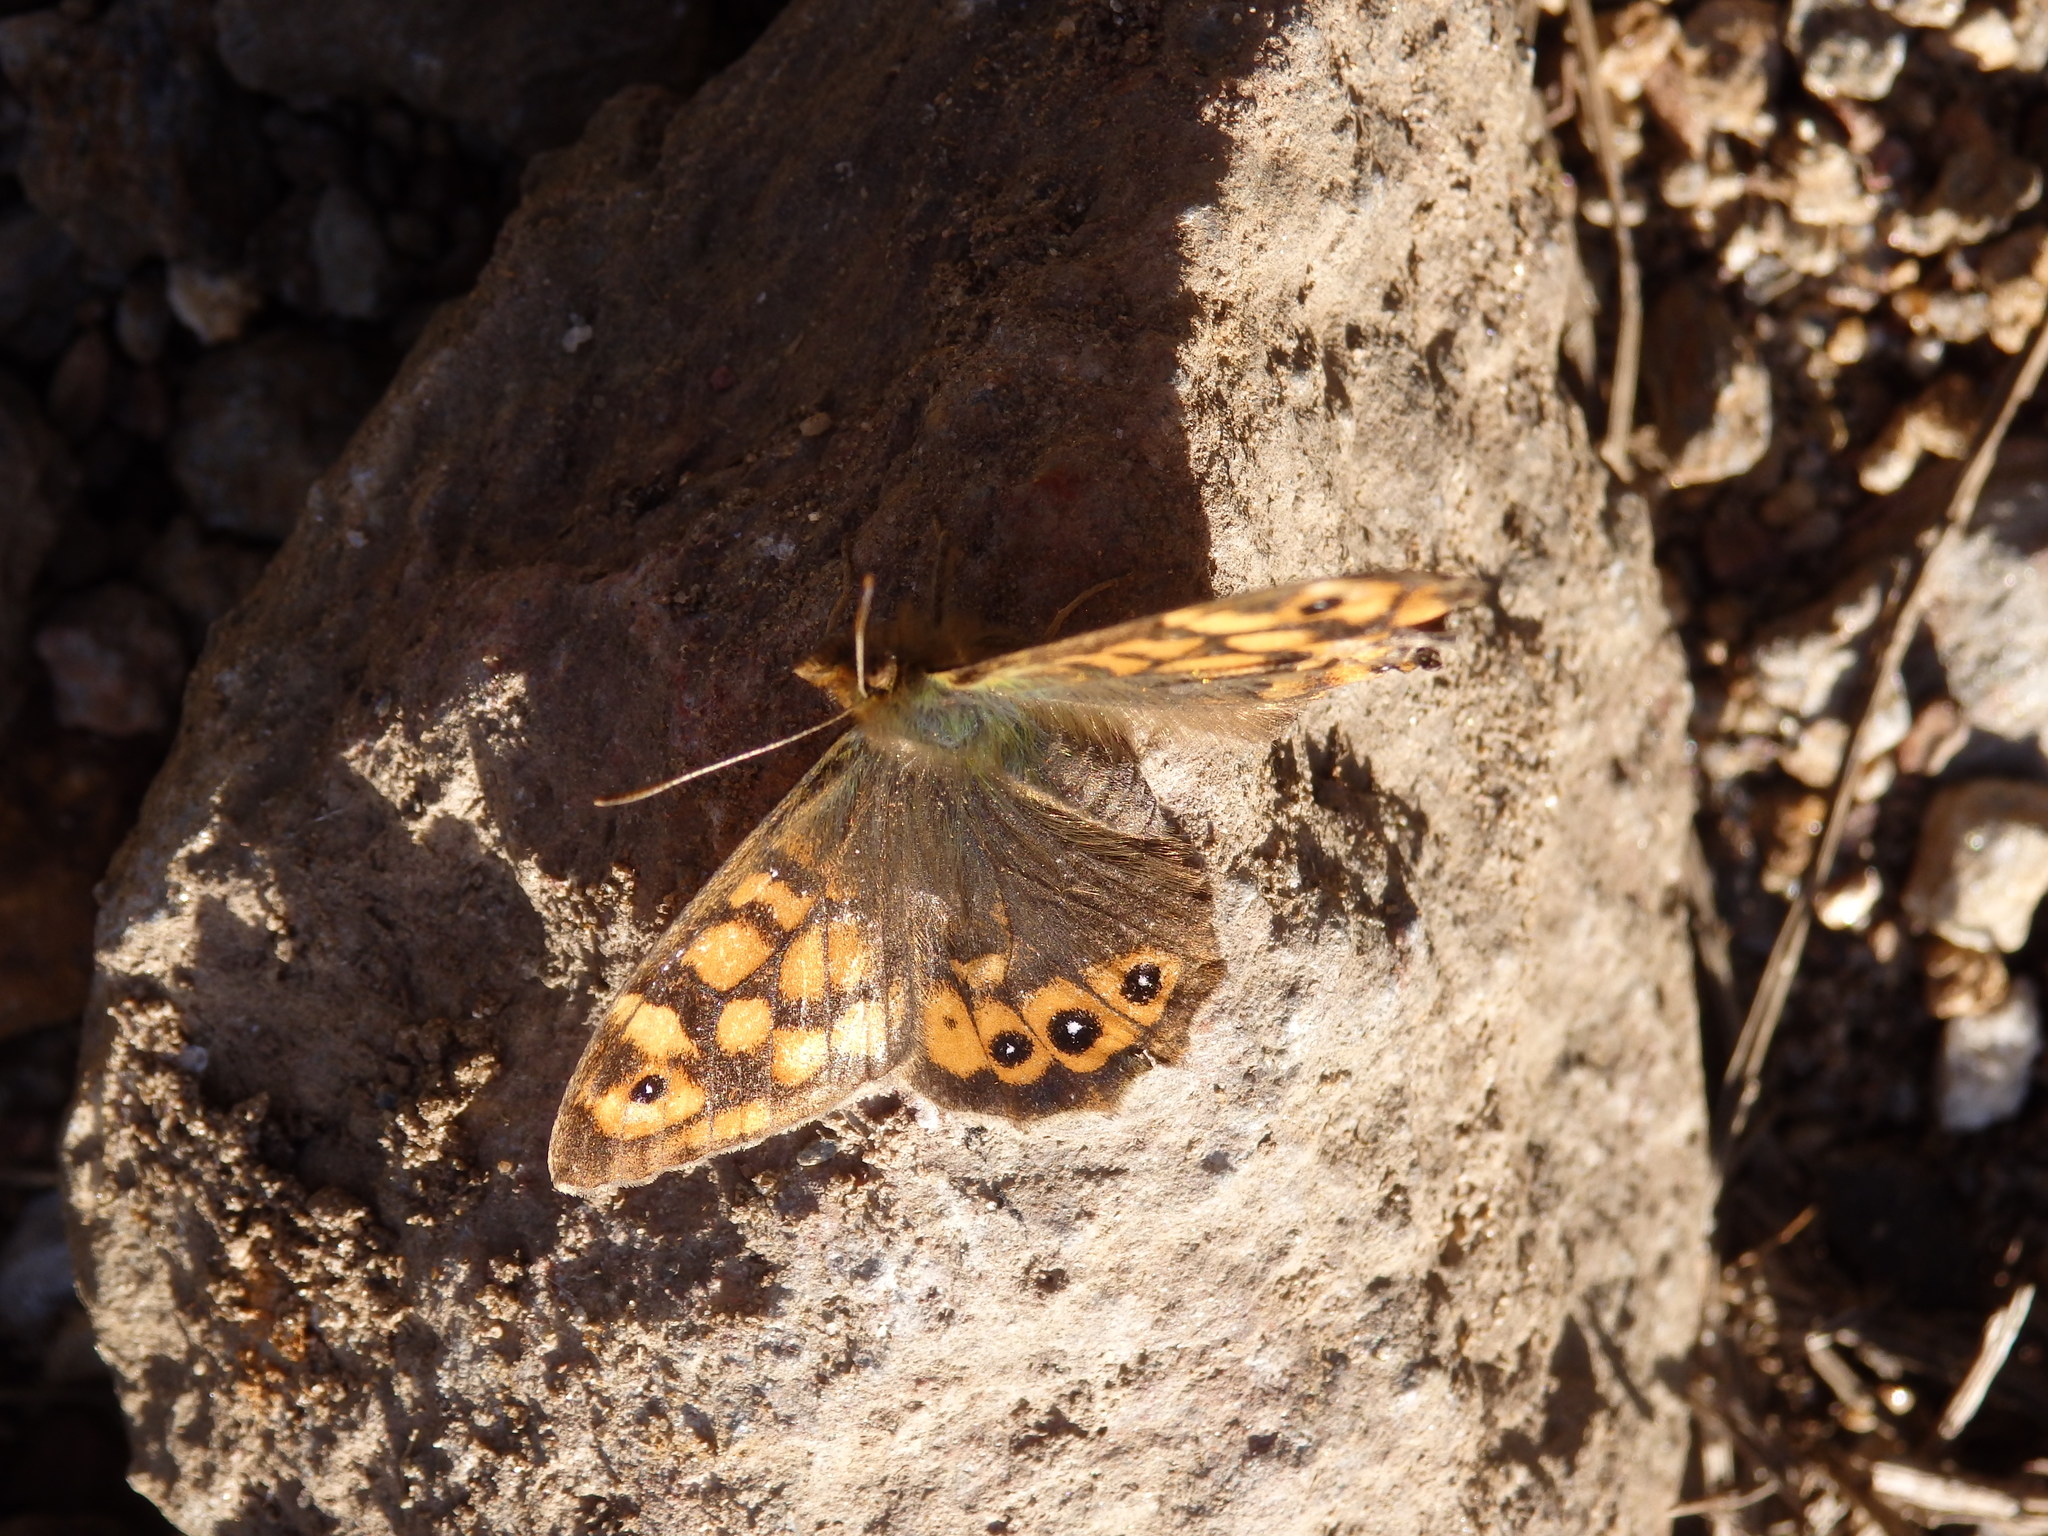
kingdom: Animalia
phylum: Arthropoda
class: Insecta
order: Lepidoptera
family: Nymphalidae
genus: Pararge
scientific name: Pararge aegeria
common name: Speckled wood
